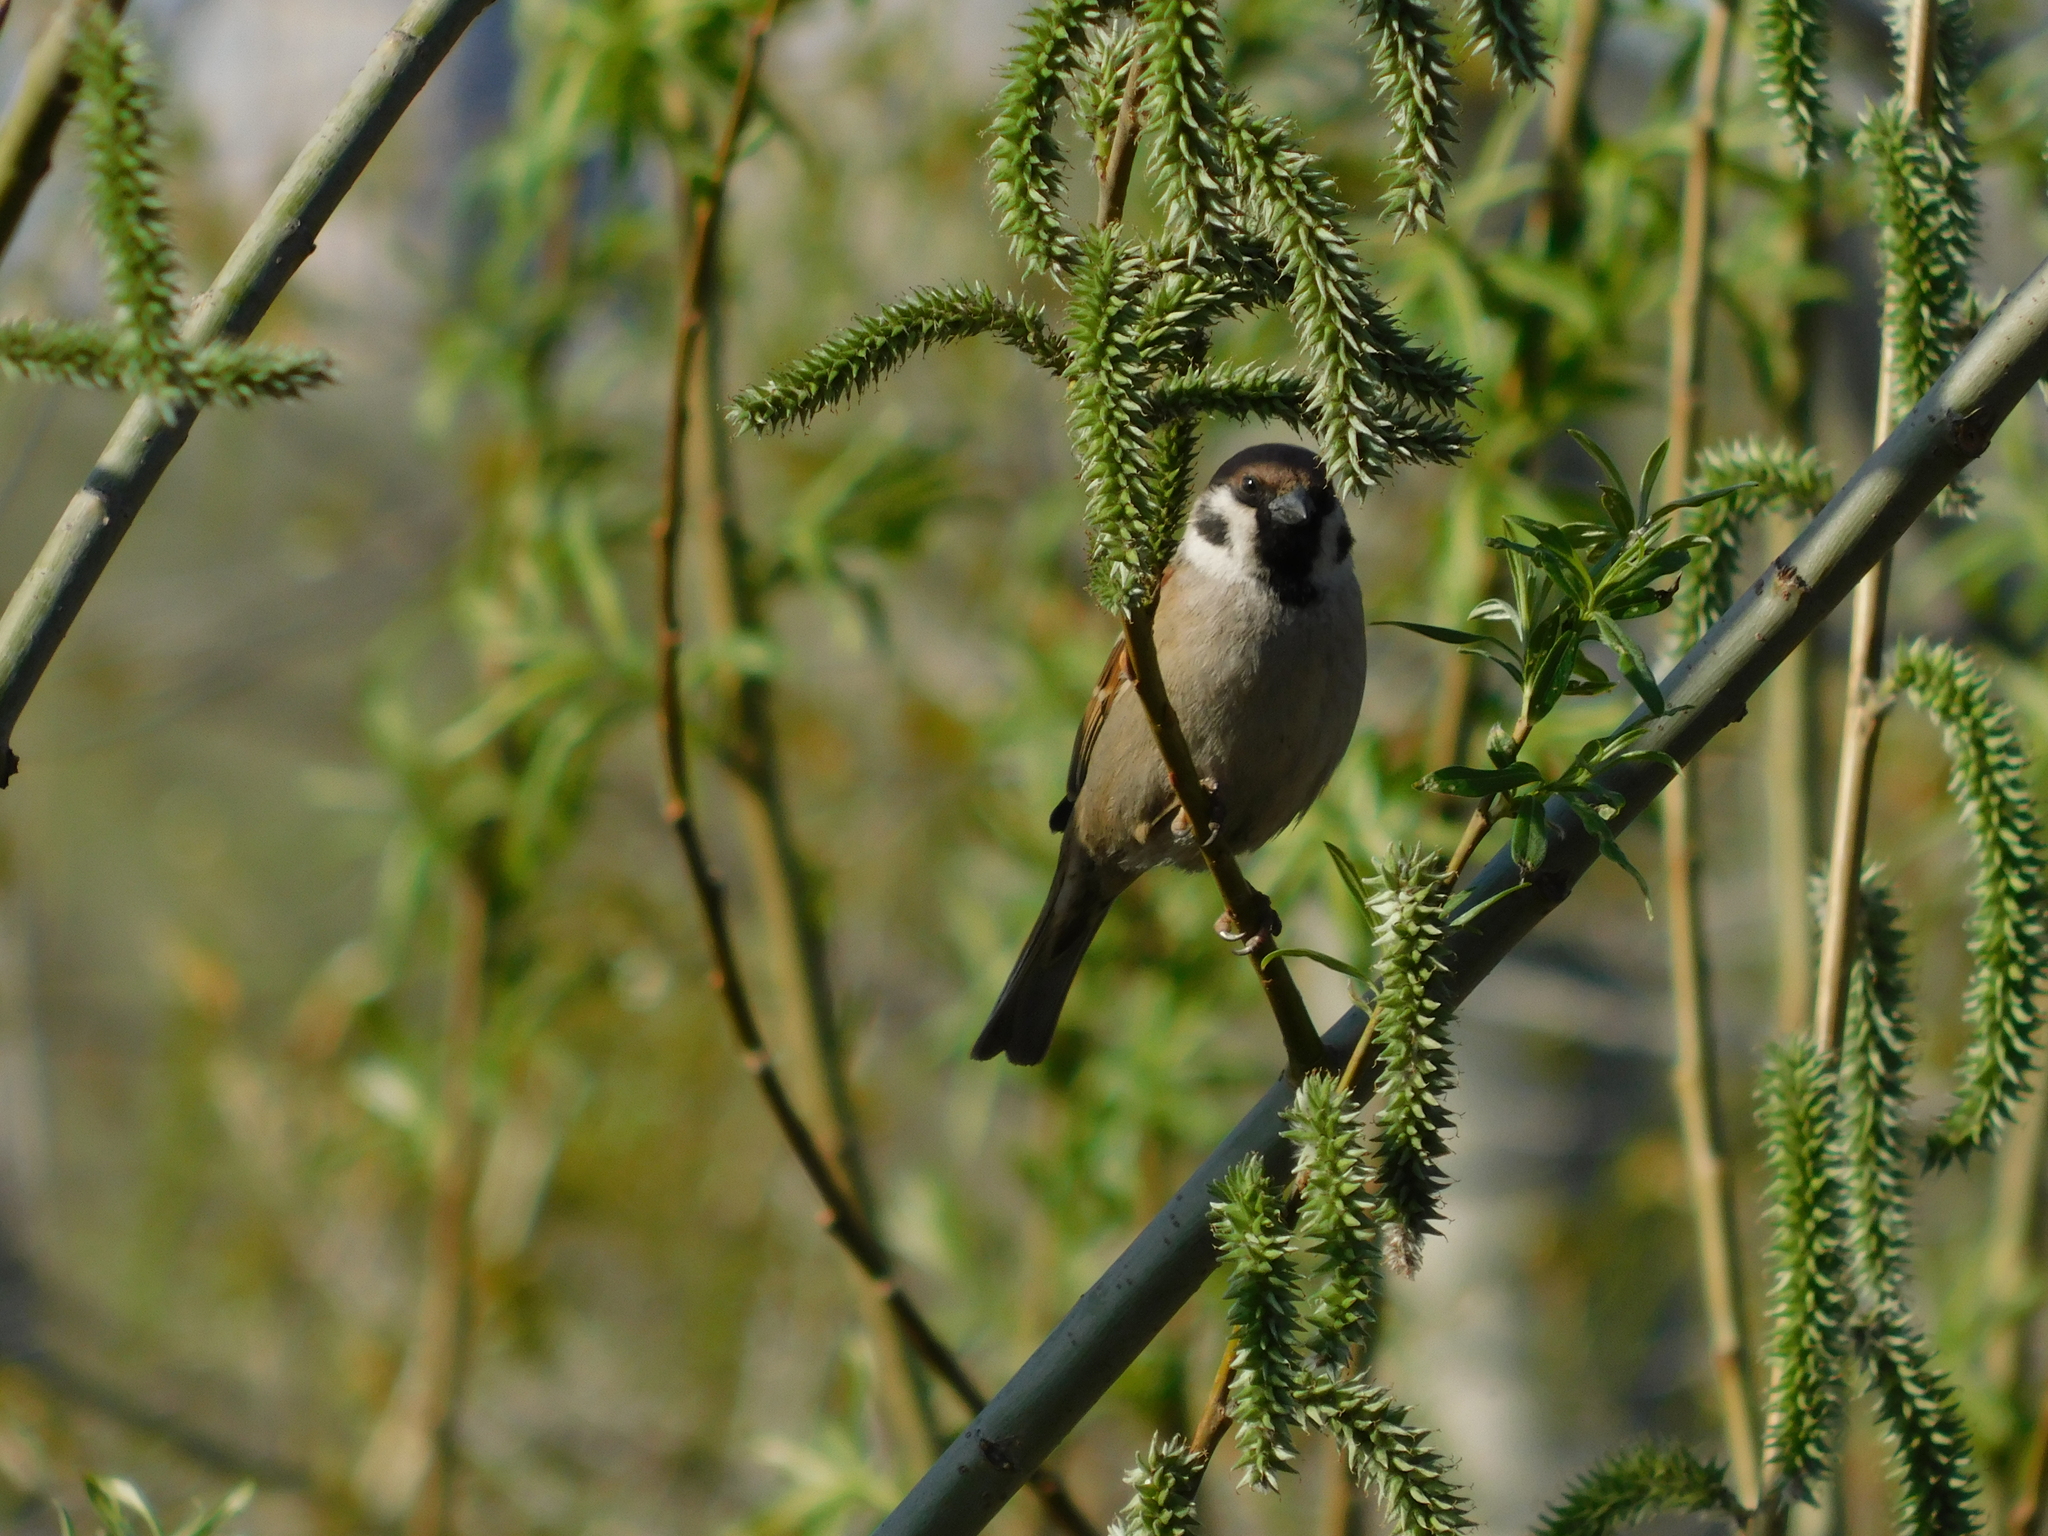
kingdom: Animalia
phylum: Chordata
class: Aves
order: Passeriformes
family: Passeridae
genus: Passer
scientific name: Passer montanus
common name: Eurasian tree sparrow
